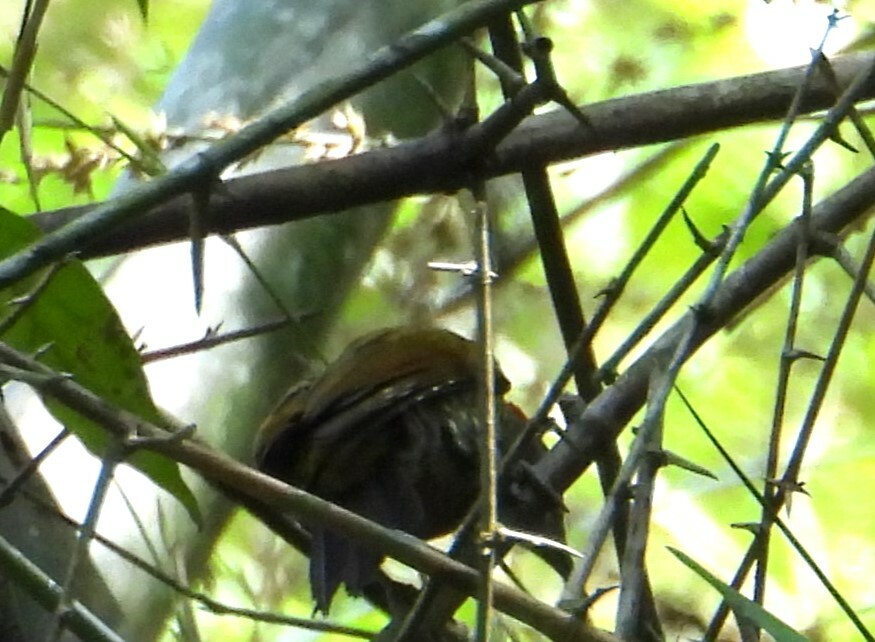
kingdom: Animalia
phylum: Chordata
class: Aves
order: Piciformes
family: Picidae
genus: Picumnus
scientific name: Picumnus innominatus
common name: Speckled piculet
